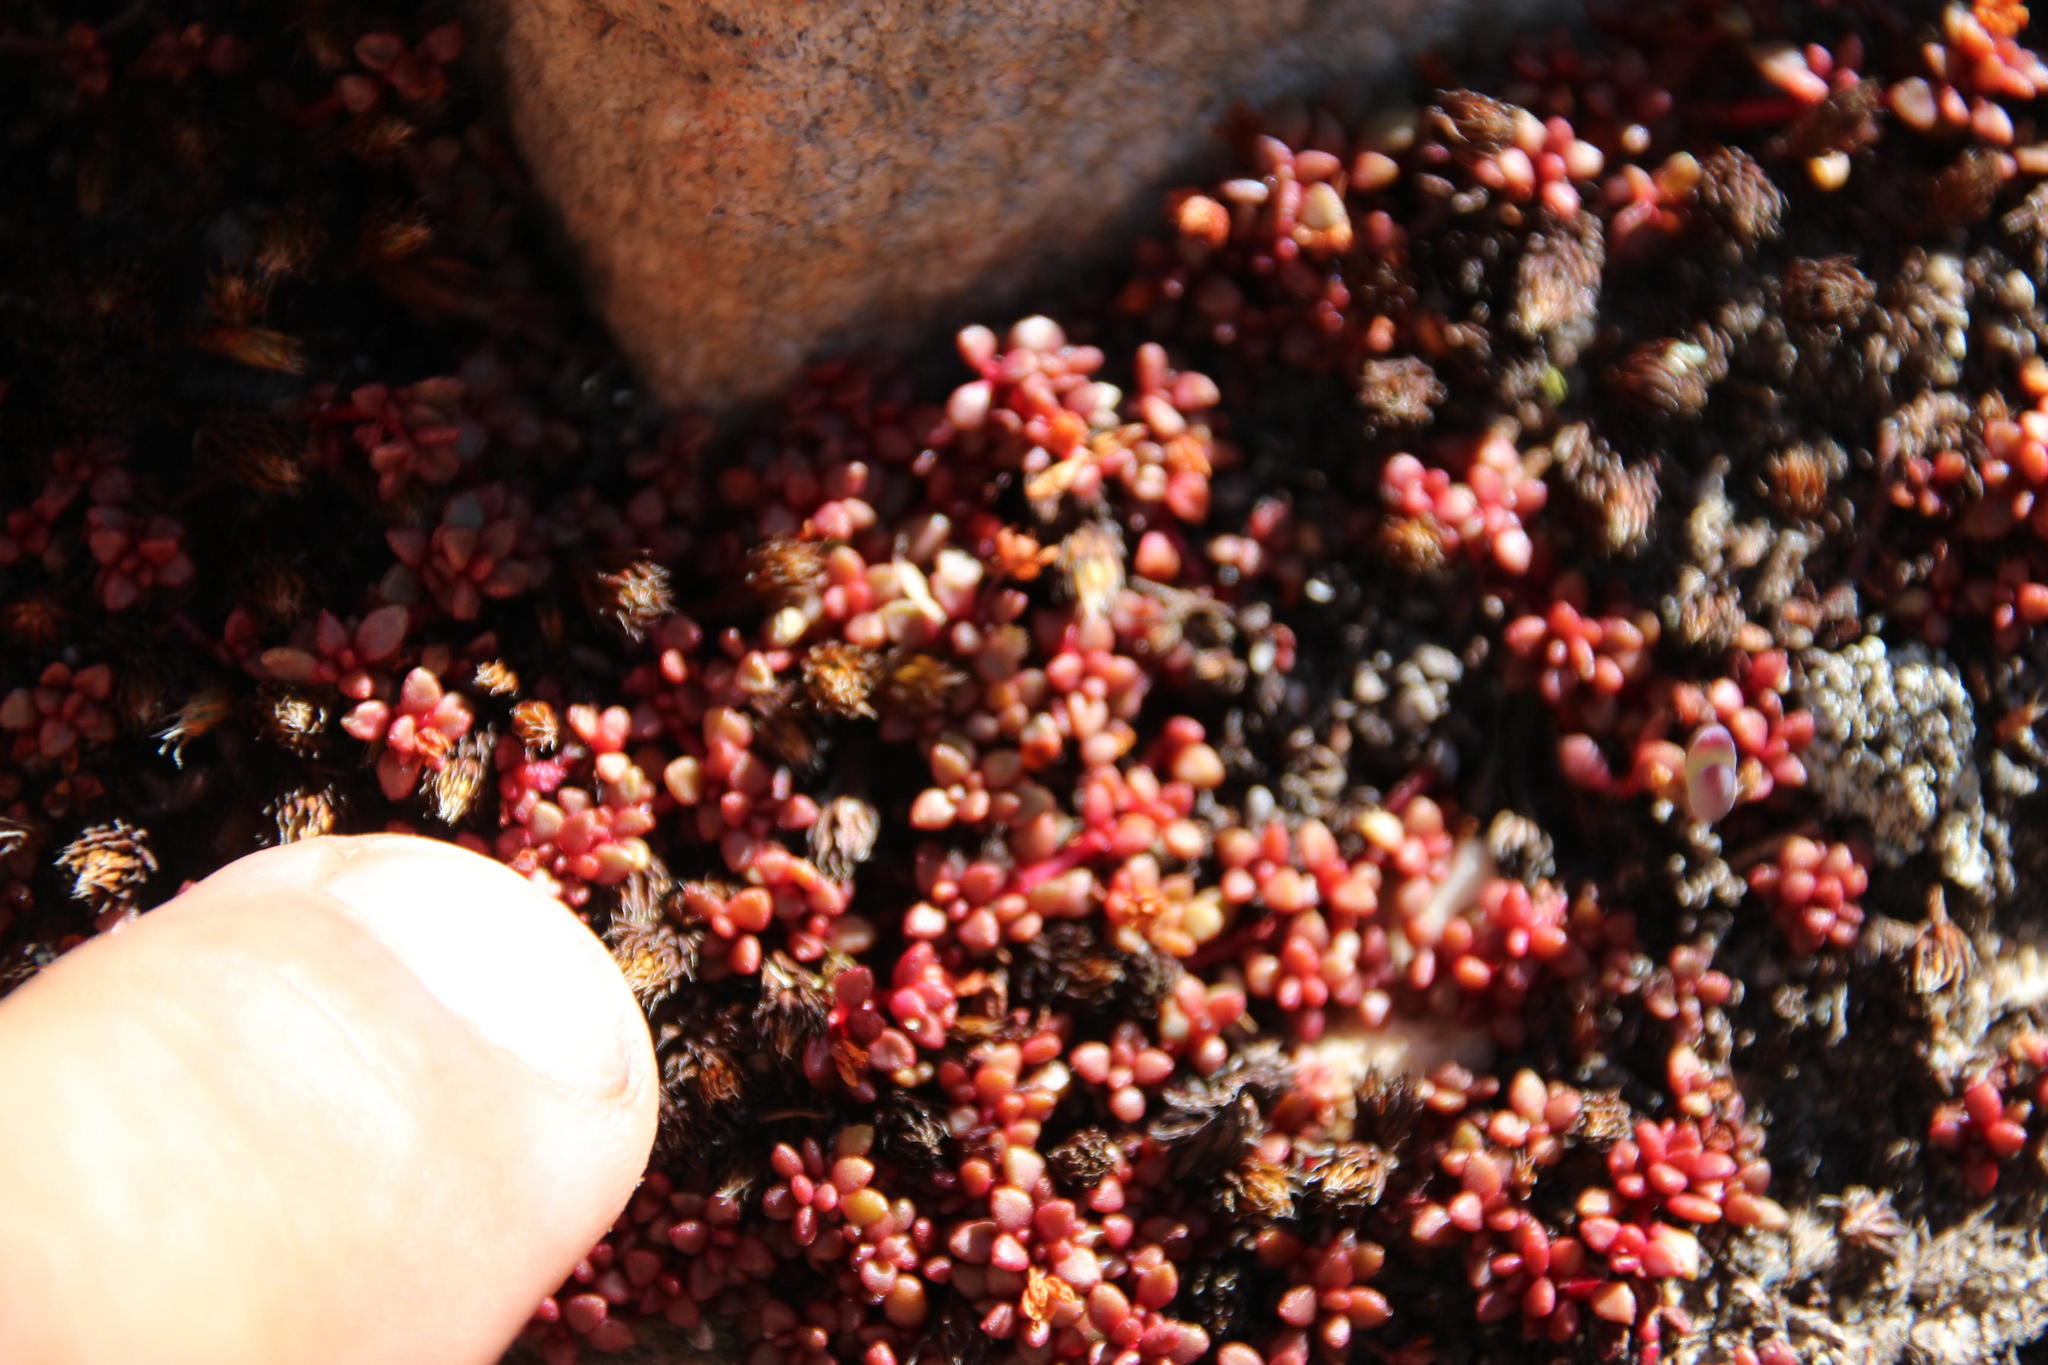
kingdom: Plantae
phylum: Tracheophyta
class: Magnoliopsida
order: Saxifragales
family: Crassulaceae
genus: Crassula
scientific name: Crassula papillosa
